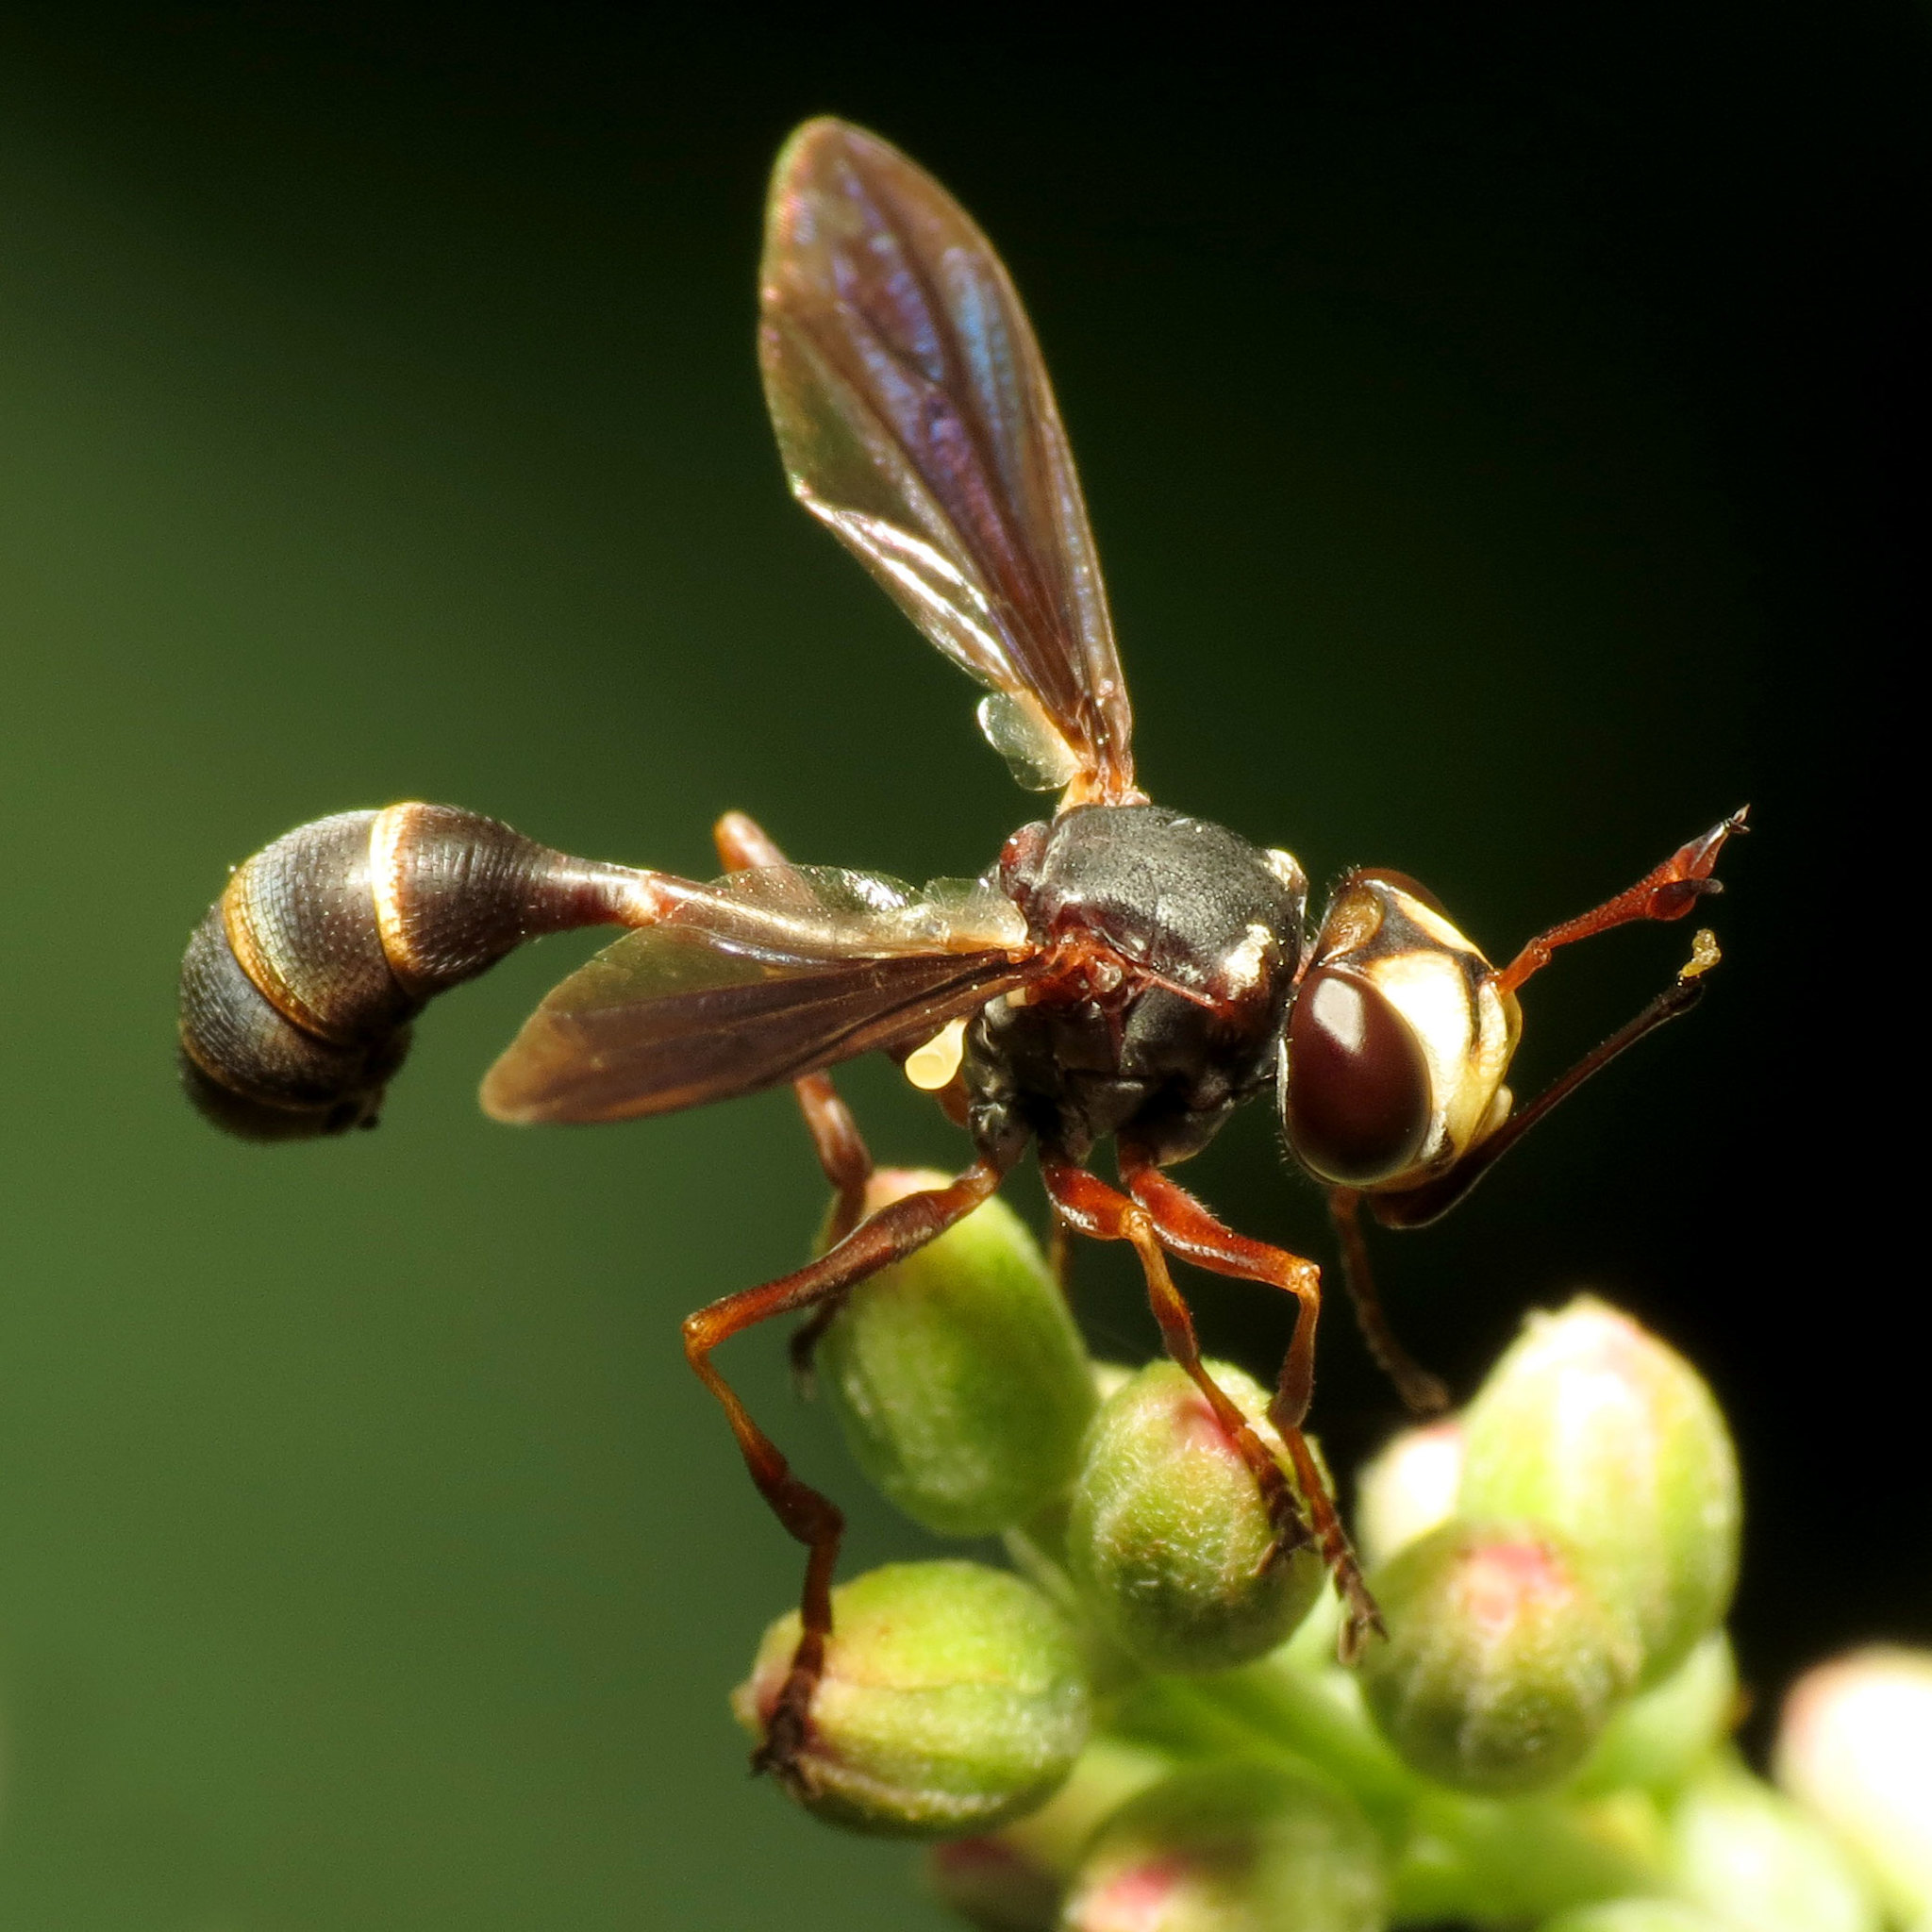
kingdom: Animalia
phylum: Arthropoda
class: Insecta
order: Diptera
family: Conopidae
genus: Physocephala
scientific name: Physocephala sagittaria
